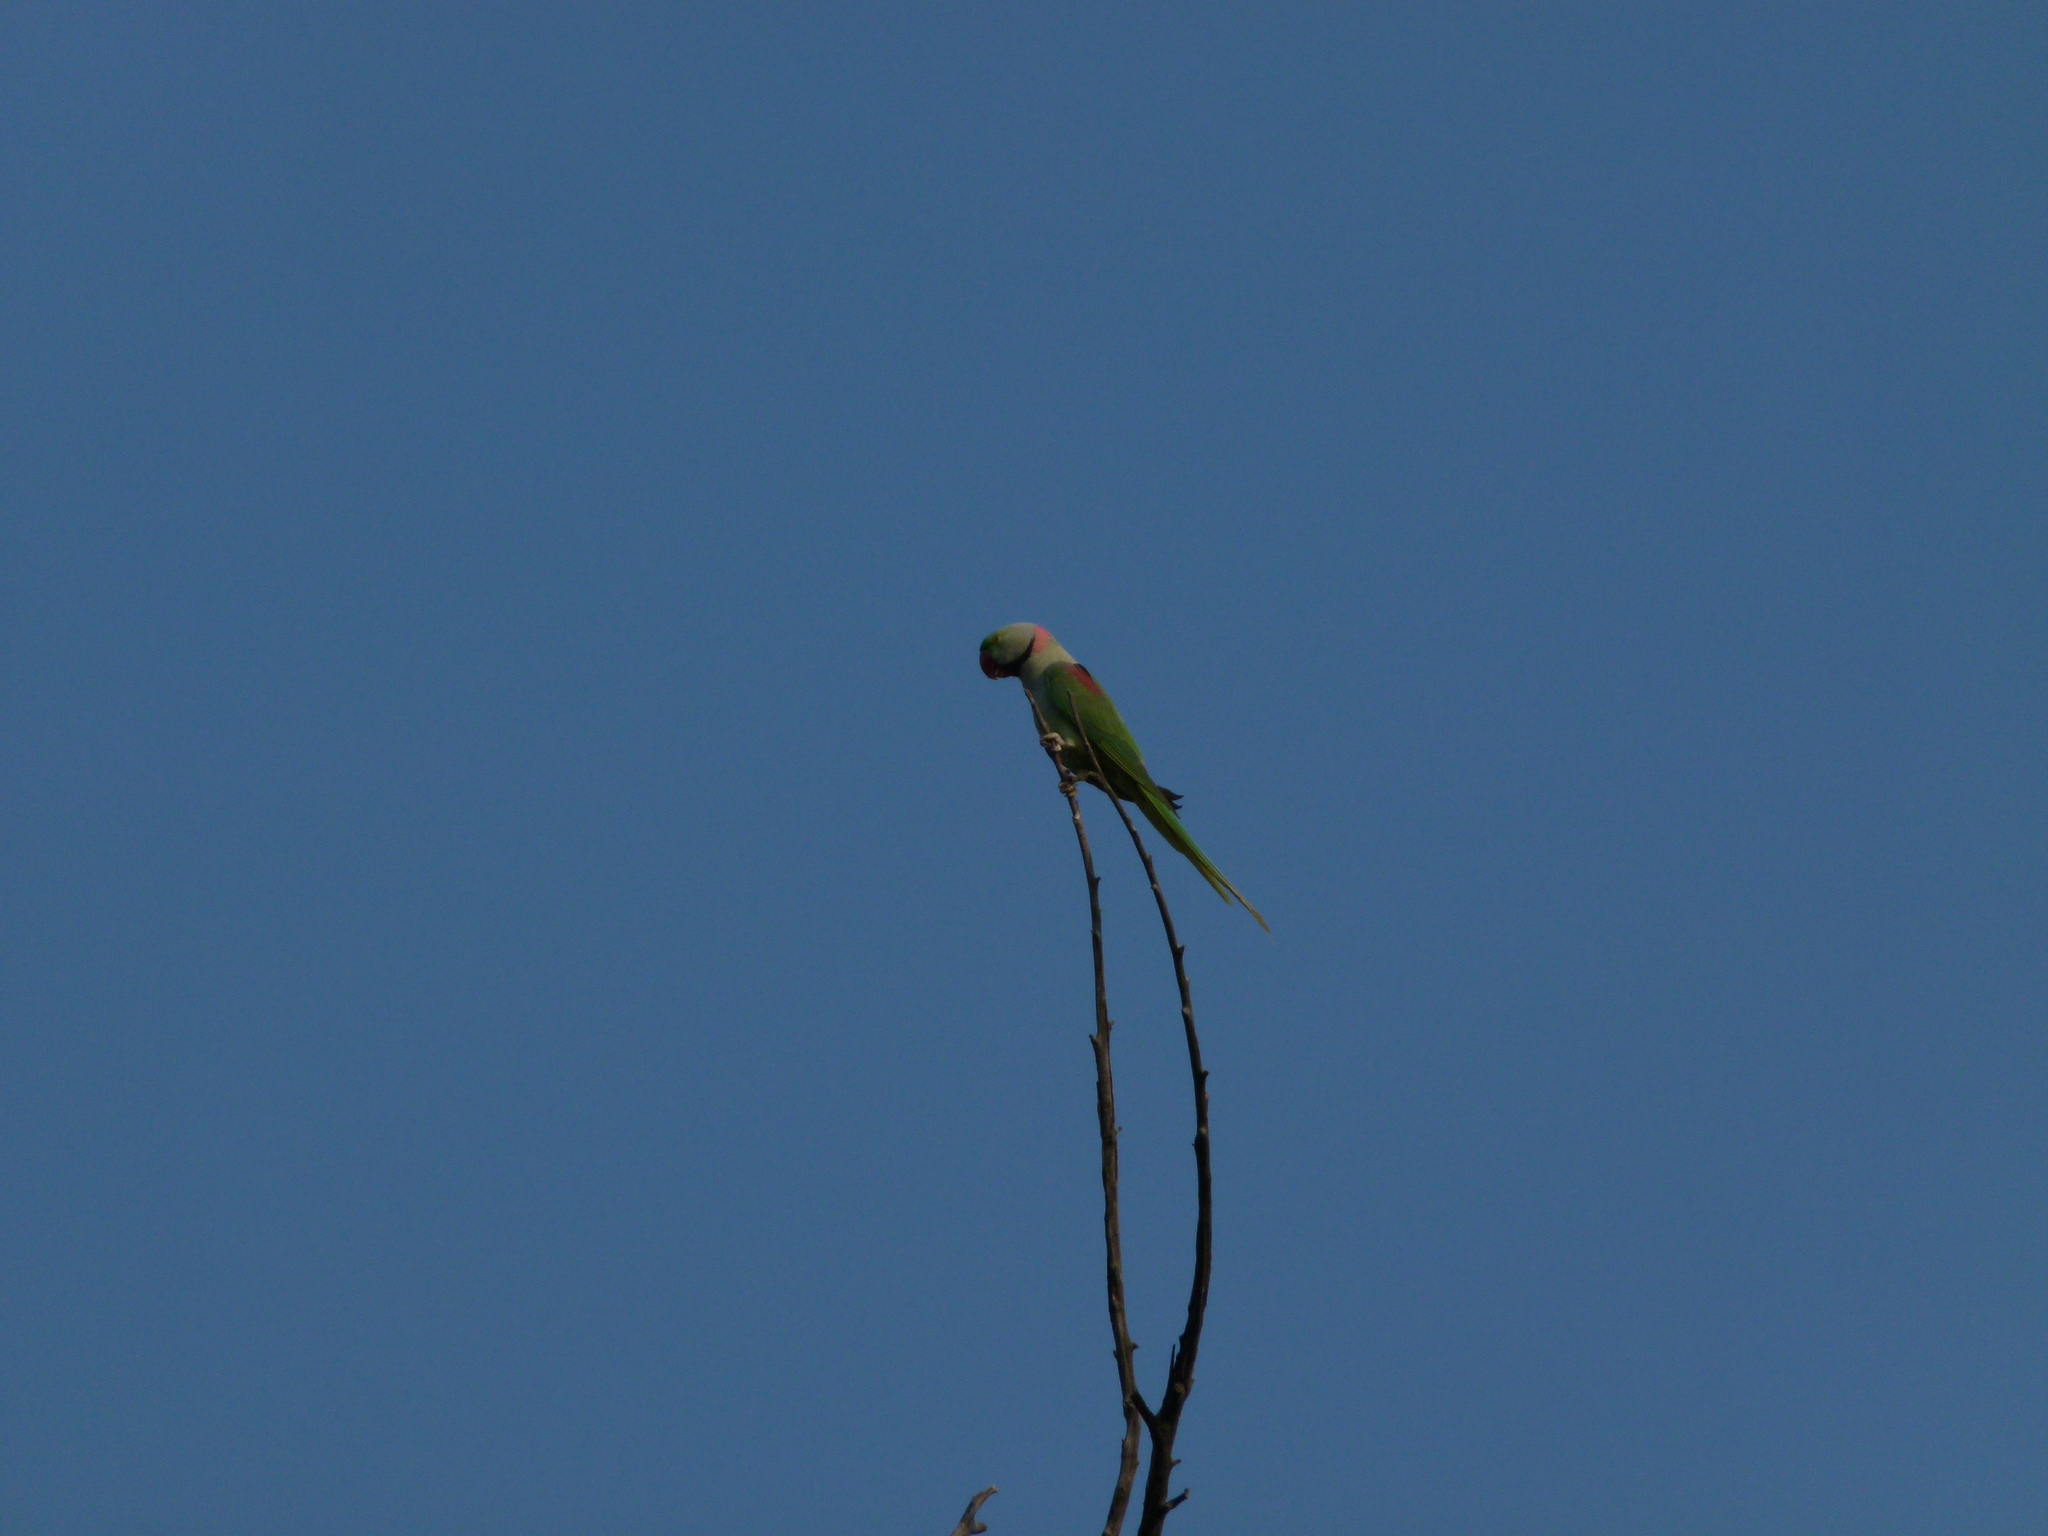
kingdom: Animalia
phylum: Chordata
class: Aves
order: Psittaciformes
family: Psittacidae
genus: Psittacula
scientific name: Psittacula eupatria
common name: Alexandrine parakeet
